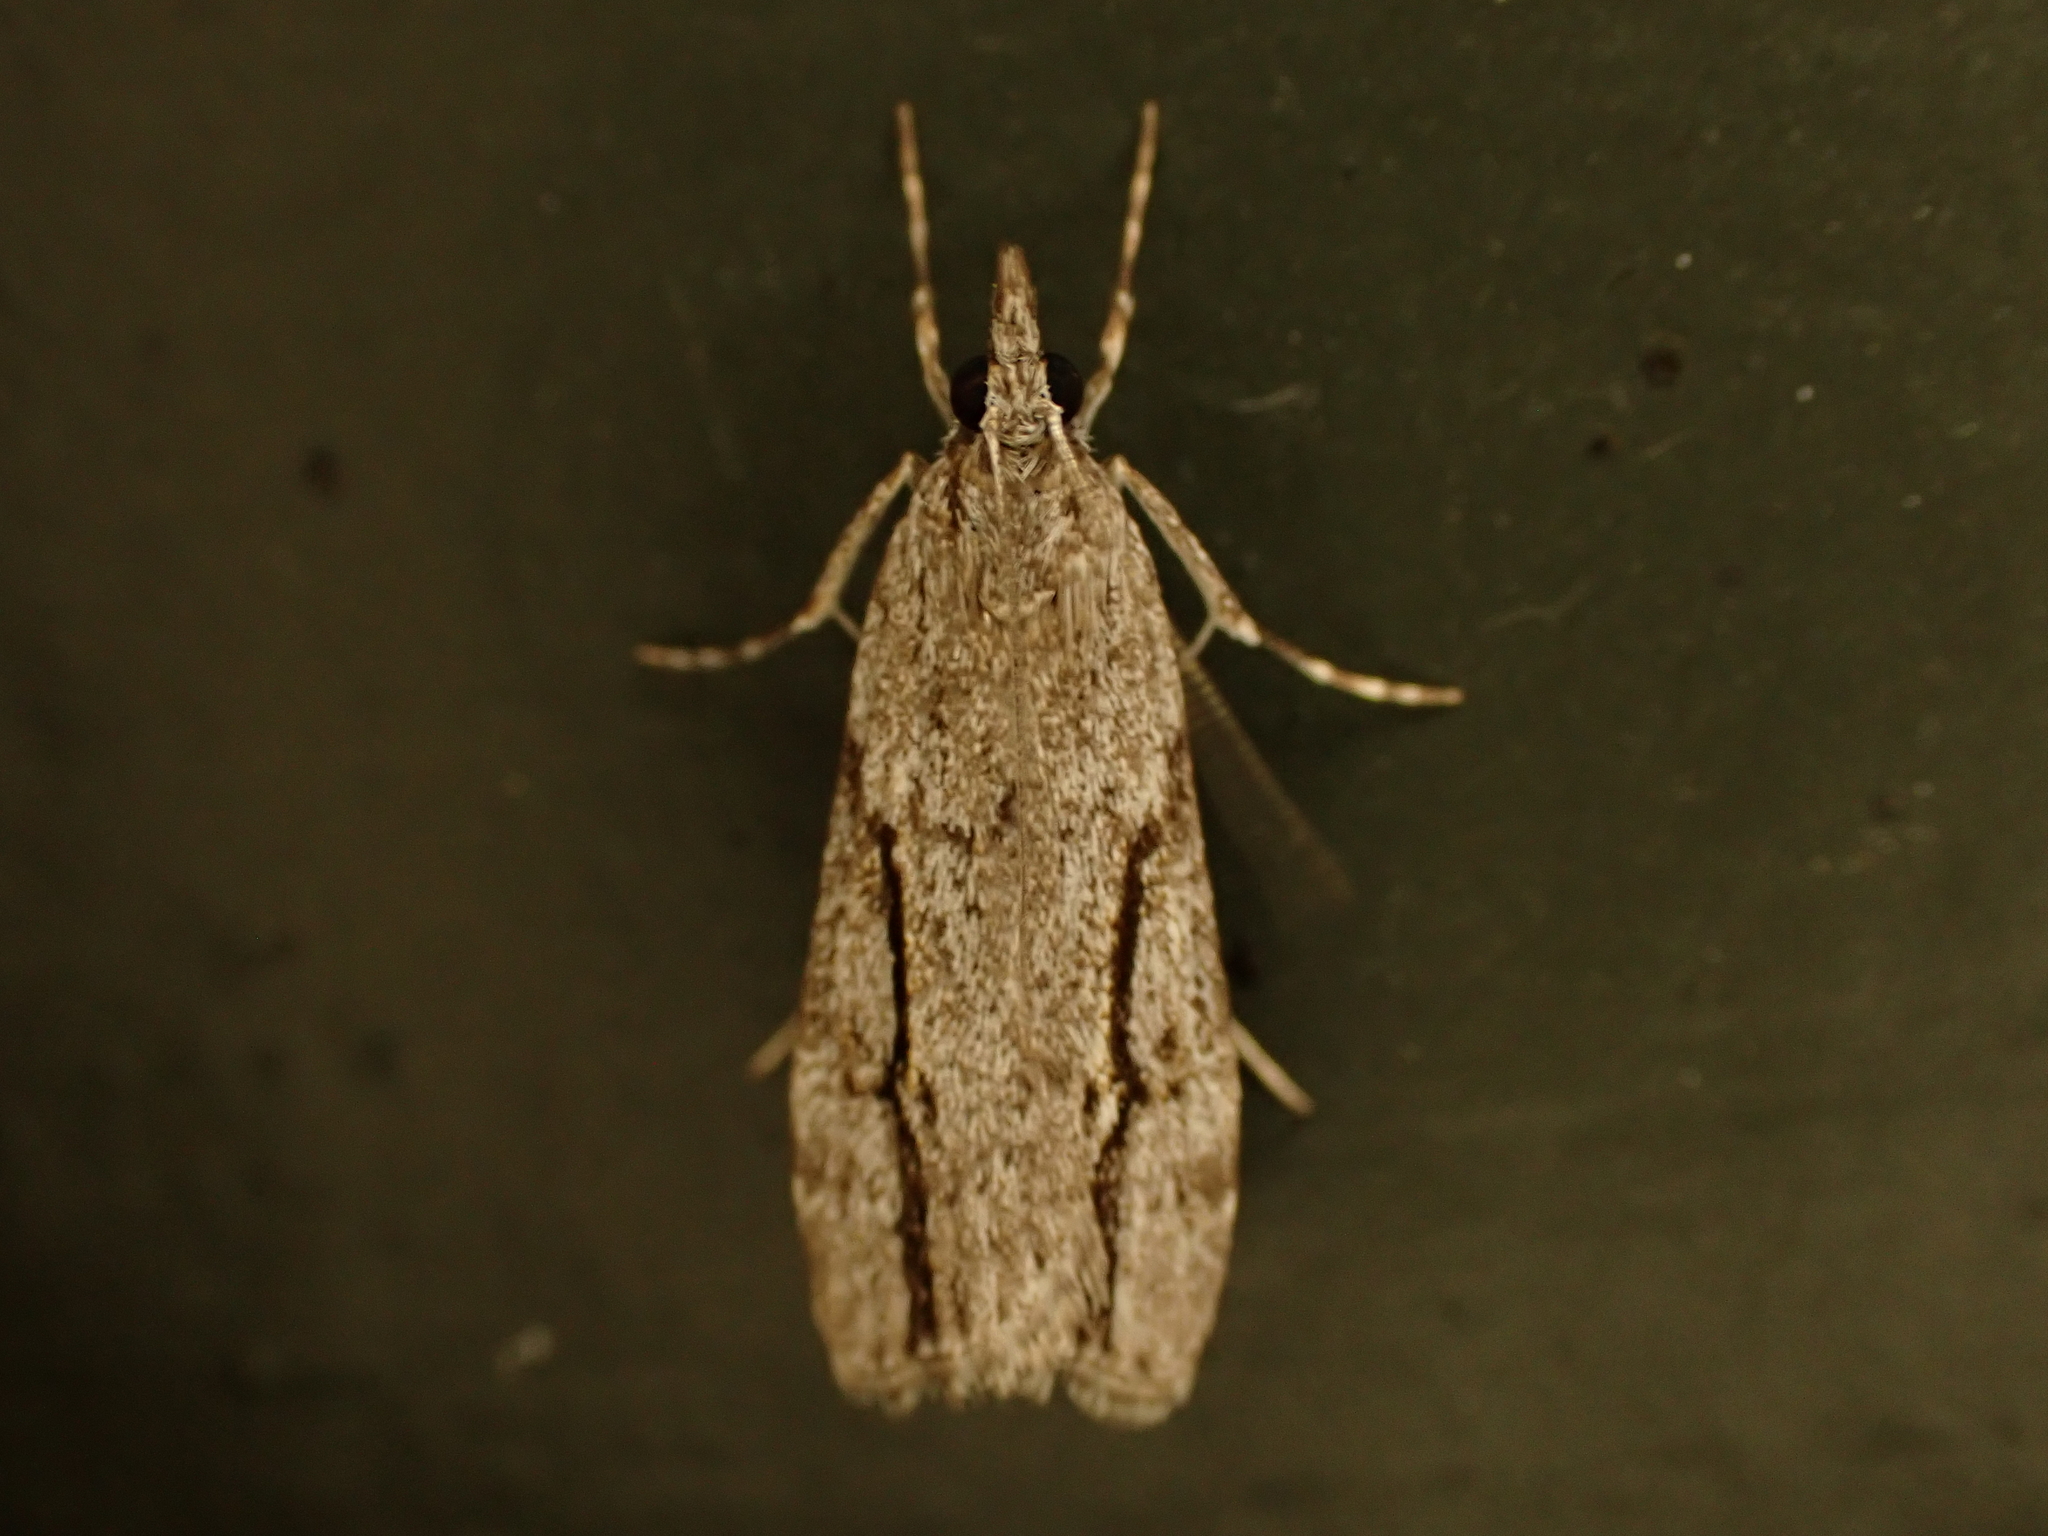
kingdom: Animalia
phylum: Arthropoda
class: Insecta
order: Lepidoptera
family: Crambidae
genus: Eudonia
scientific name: Eudonia bisinualis
